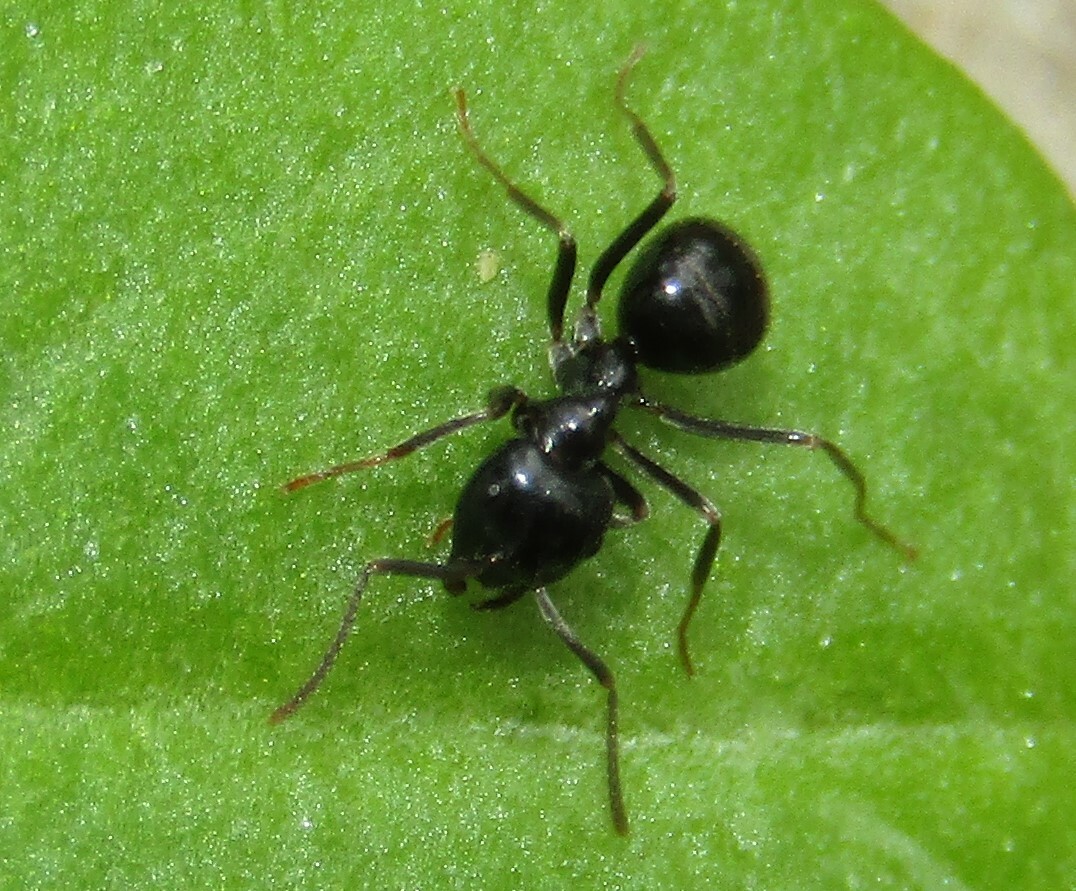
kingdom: Animalia
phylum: Arthropoda
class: Insecta
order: Hymenoptera
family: Formicidae
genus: Lasius
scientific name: Lasius fuliginosus
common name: Jet ant
